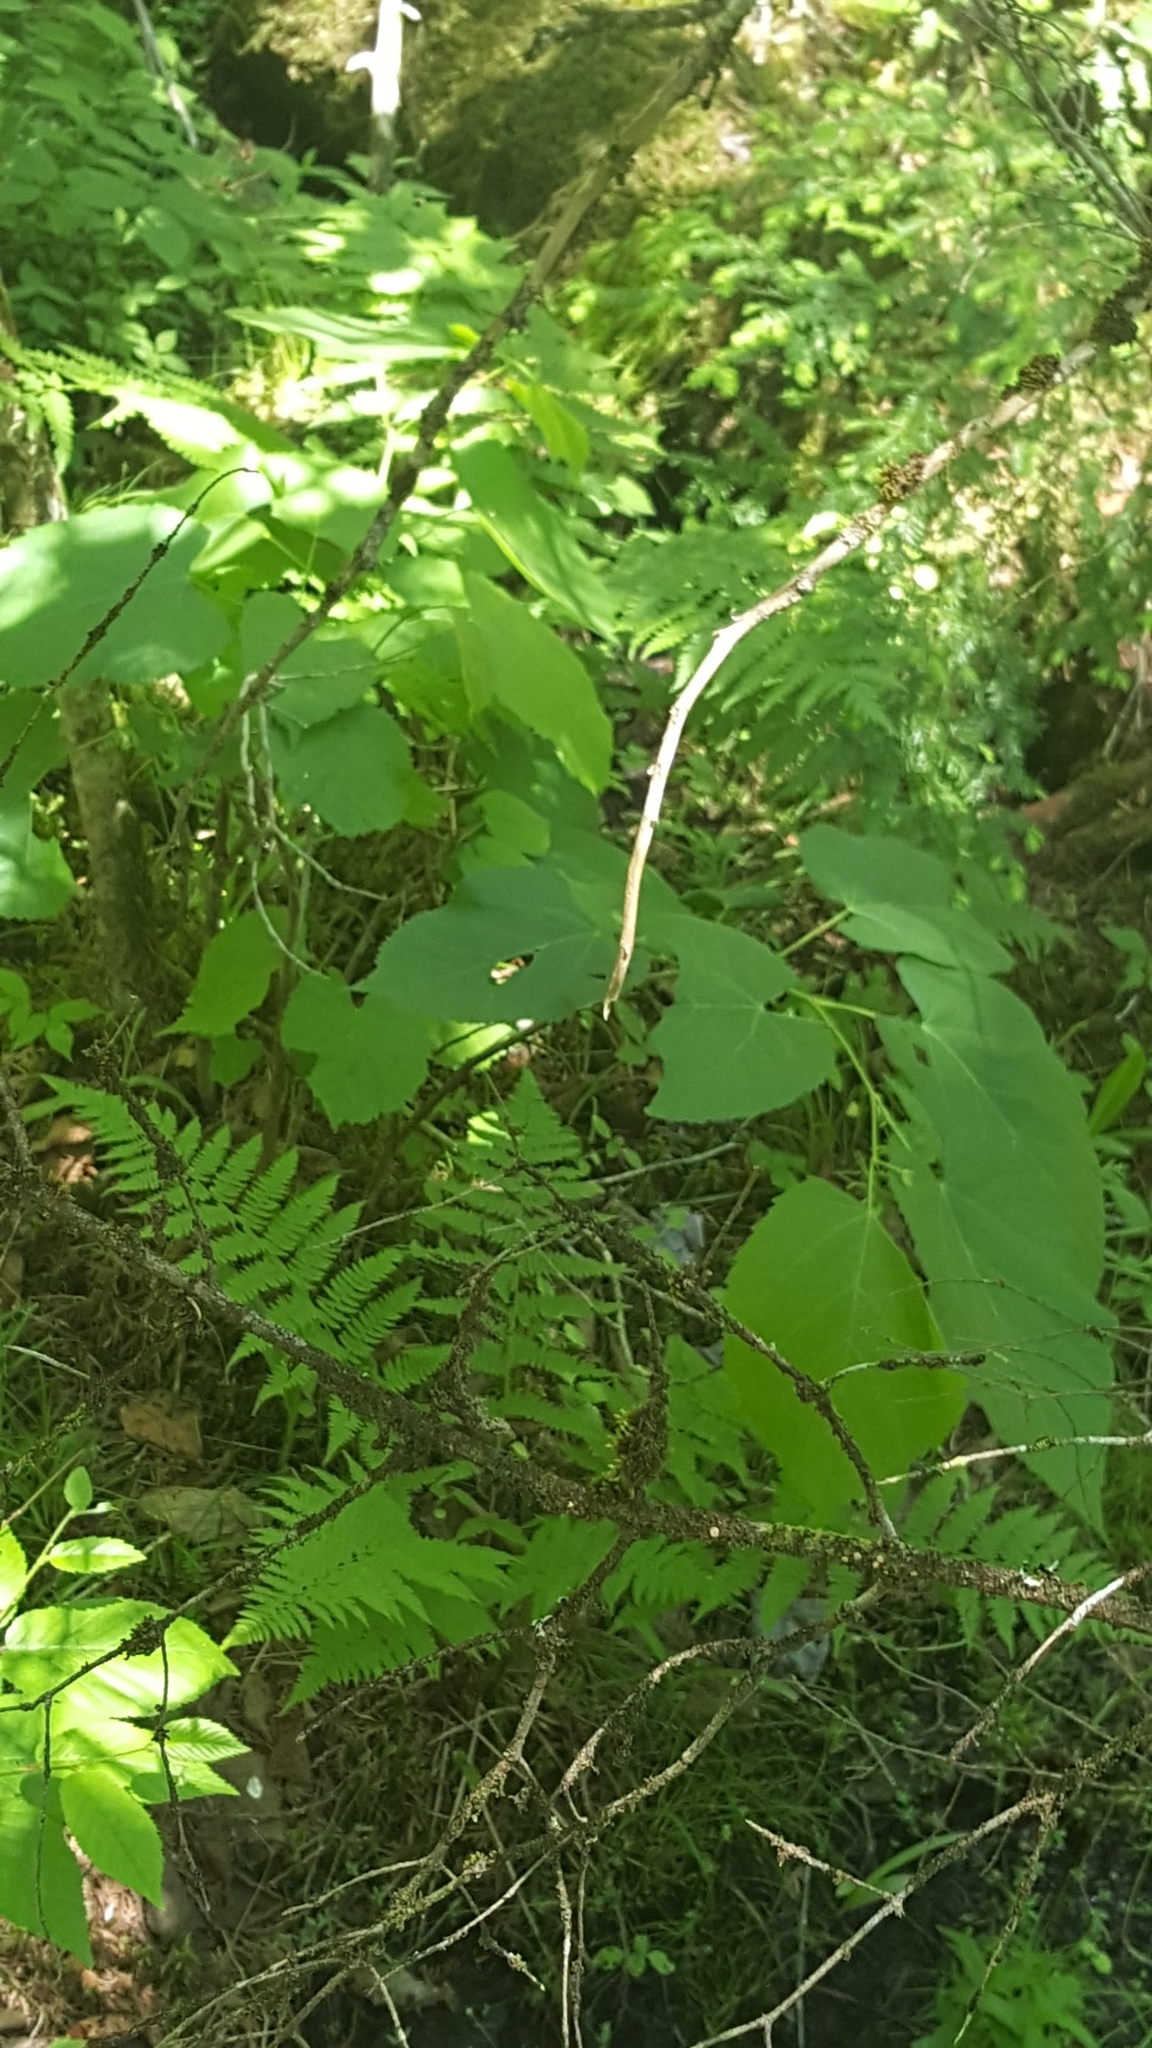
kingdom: Plantae
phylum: Tracheophyta
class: Magnoliopsida
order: Malvales
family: Malvaceae
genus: Tilia
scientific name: Tilia americana
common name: Basswood
